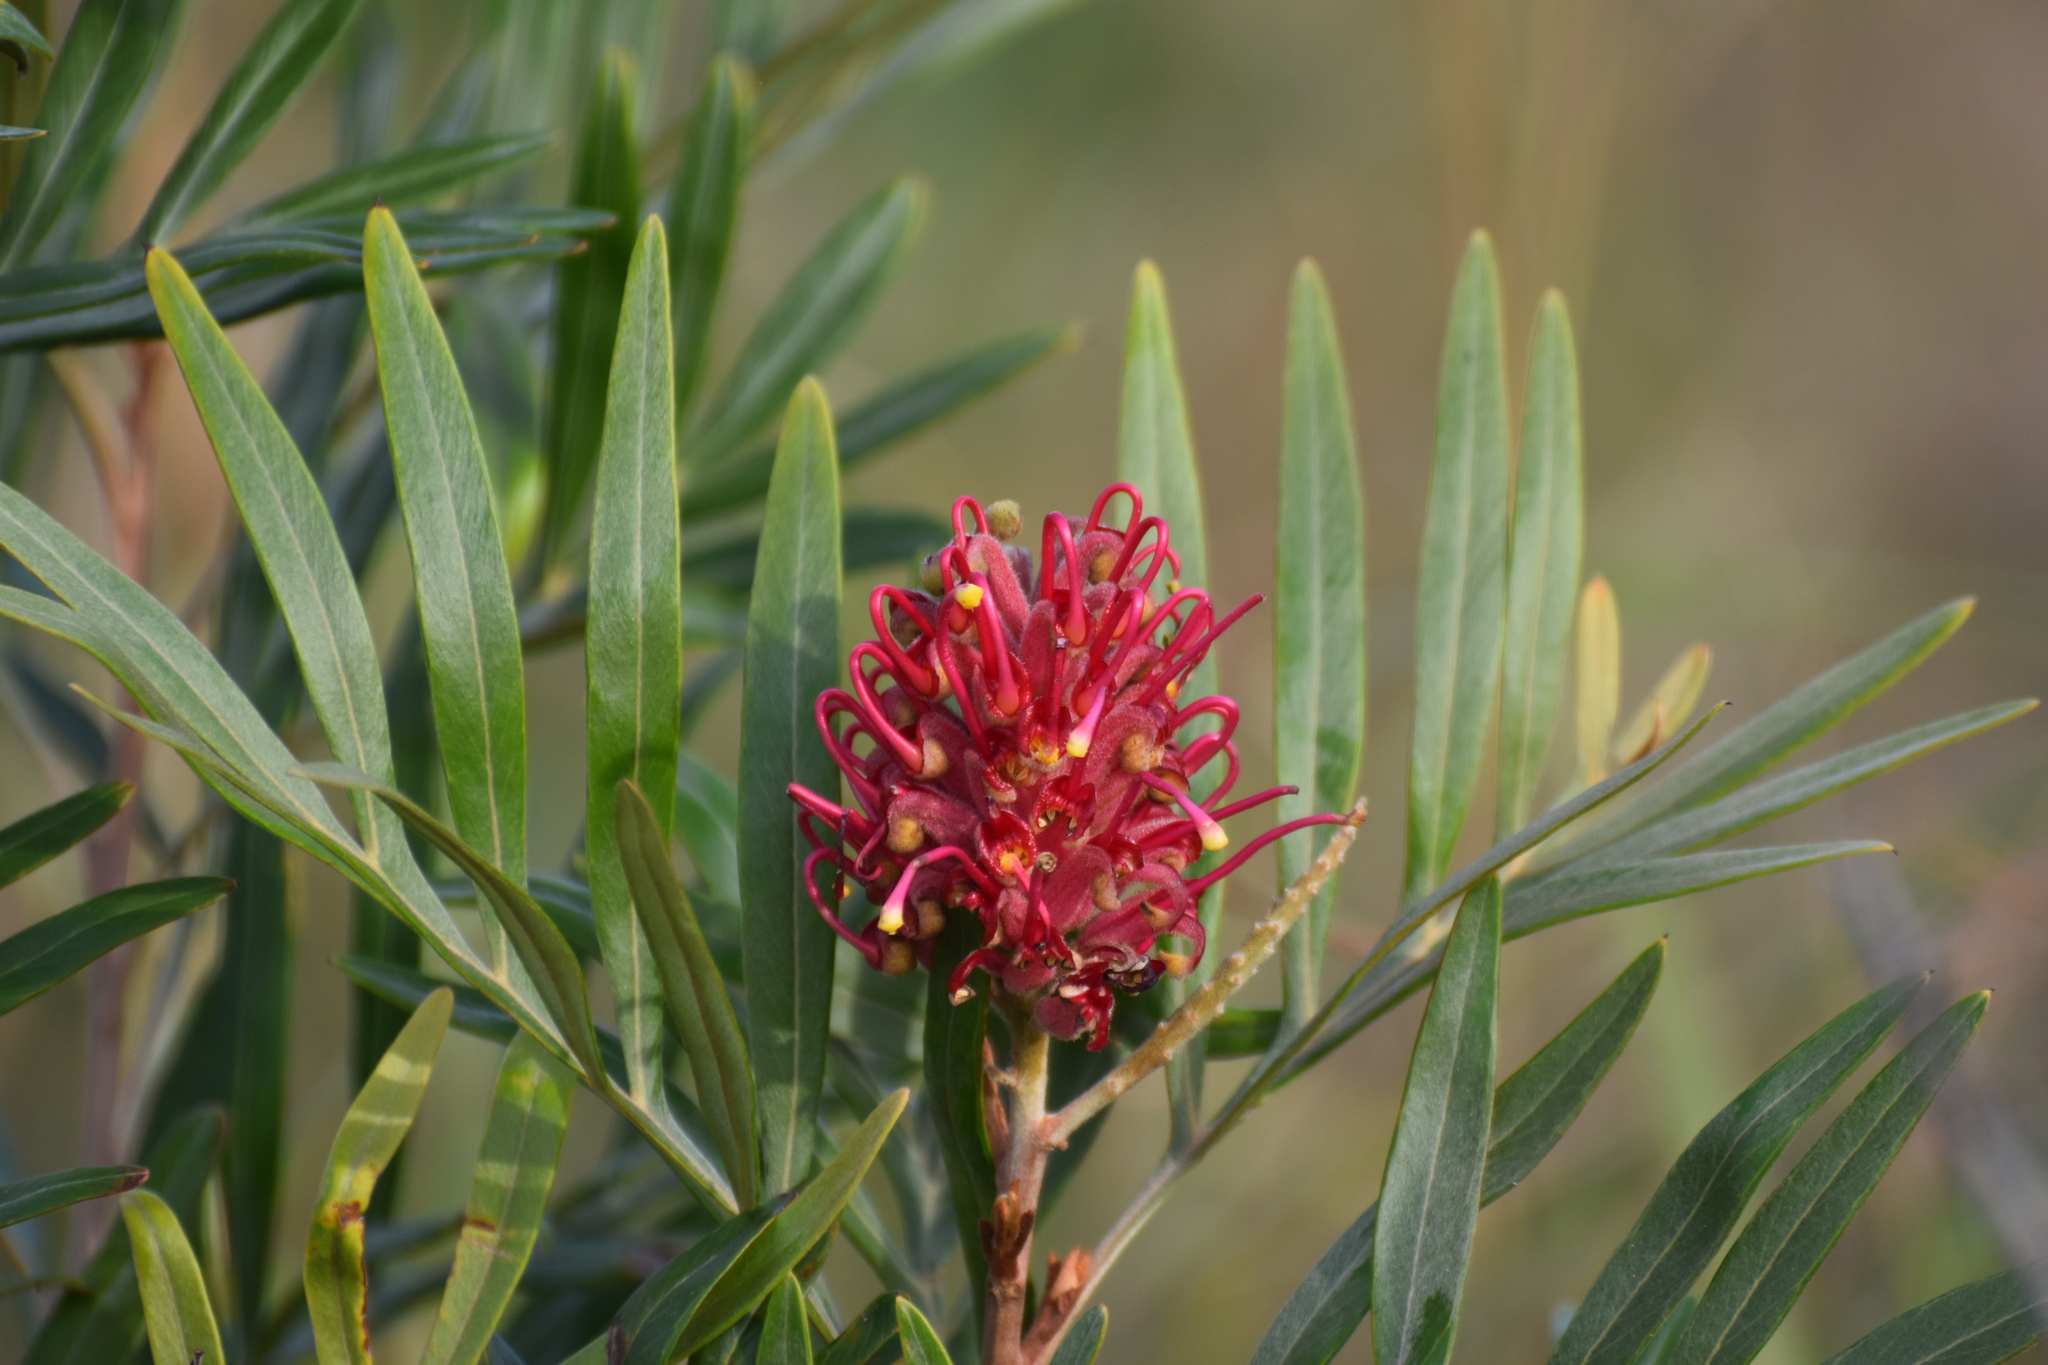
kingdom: Plantae
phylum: Tracheophyta
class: Magnoliopsida
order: Proteales
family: Proteaceae
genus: Grevillea
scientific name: Grevillea banksii
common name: Kahili flower
